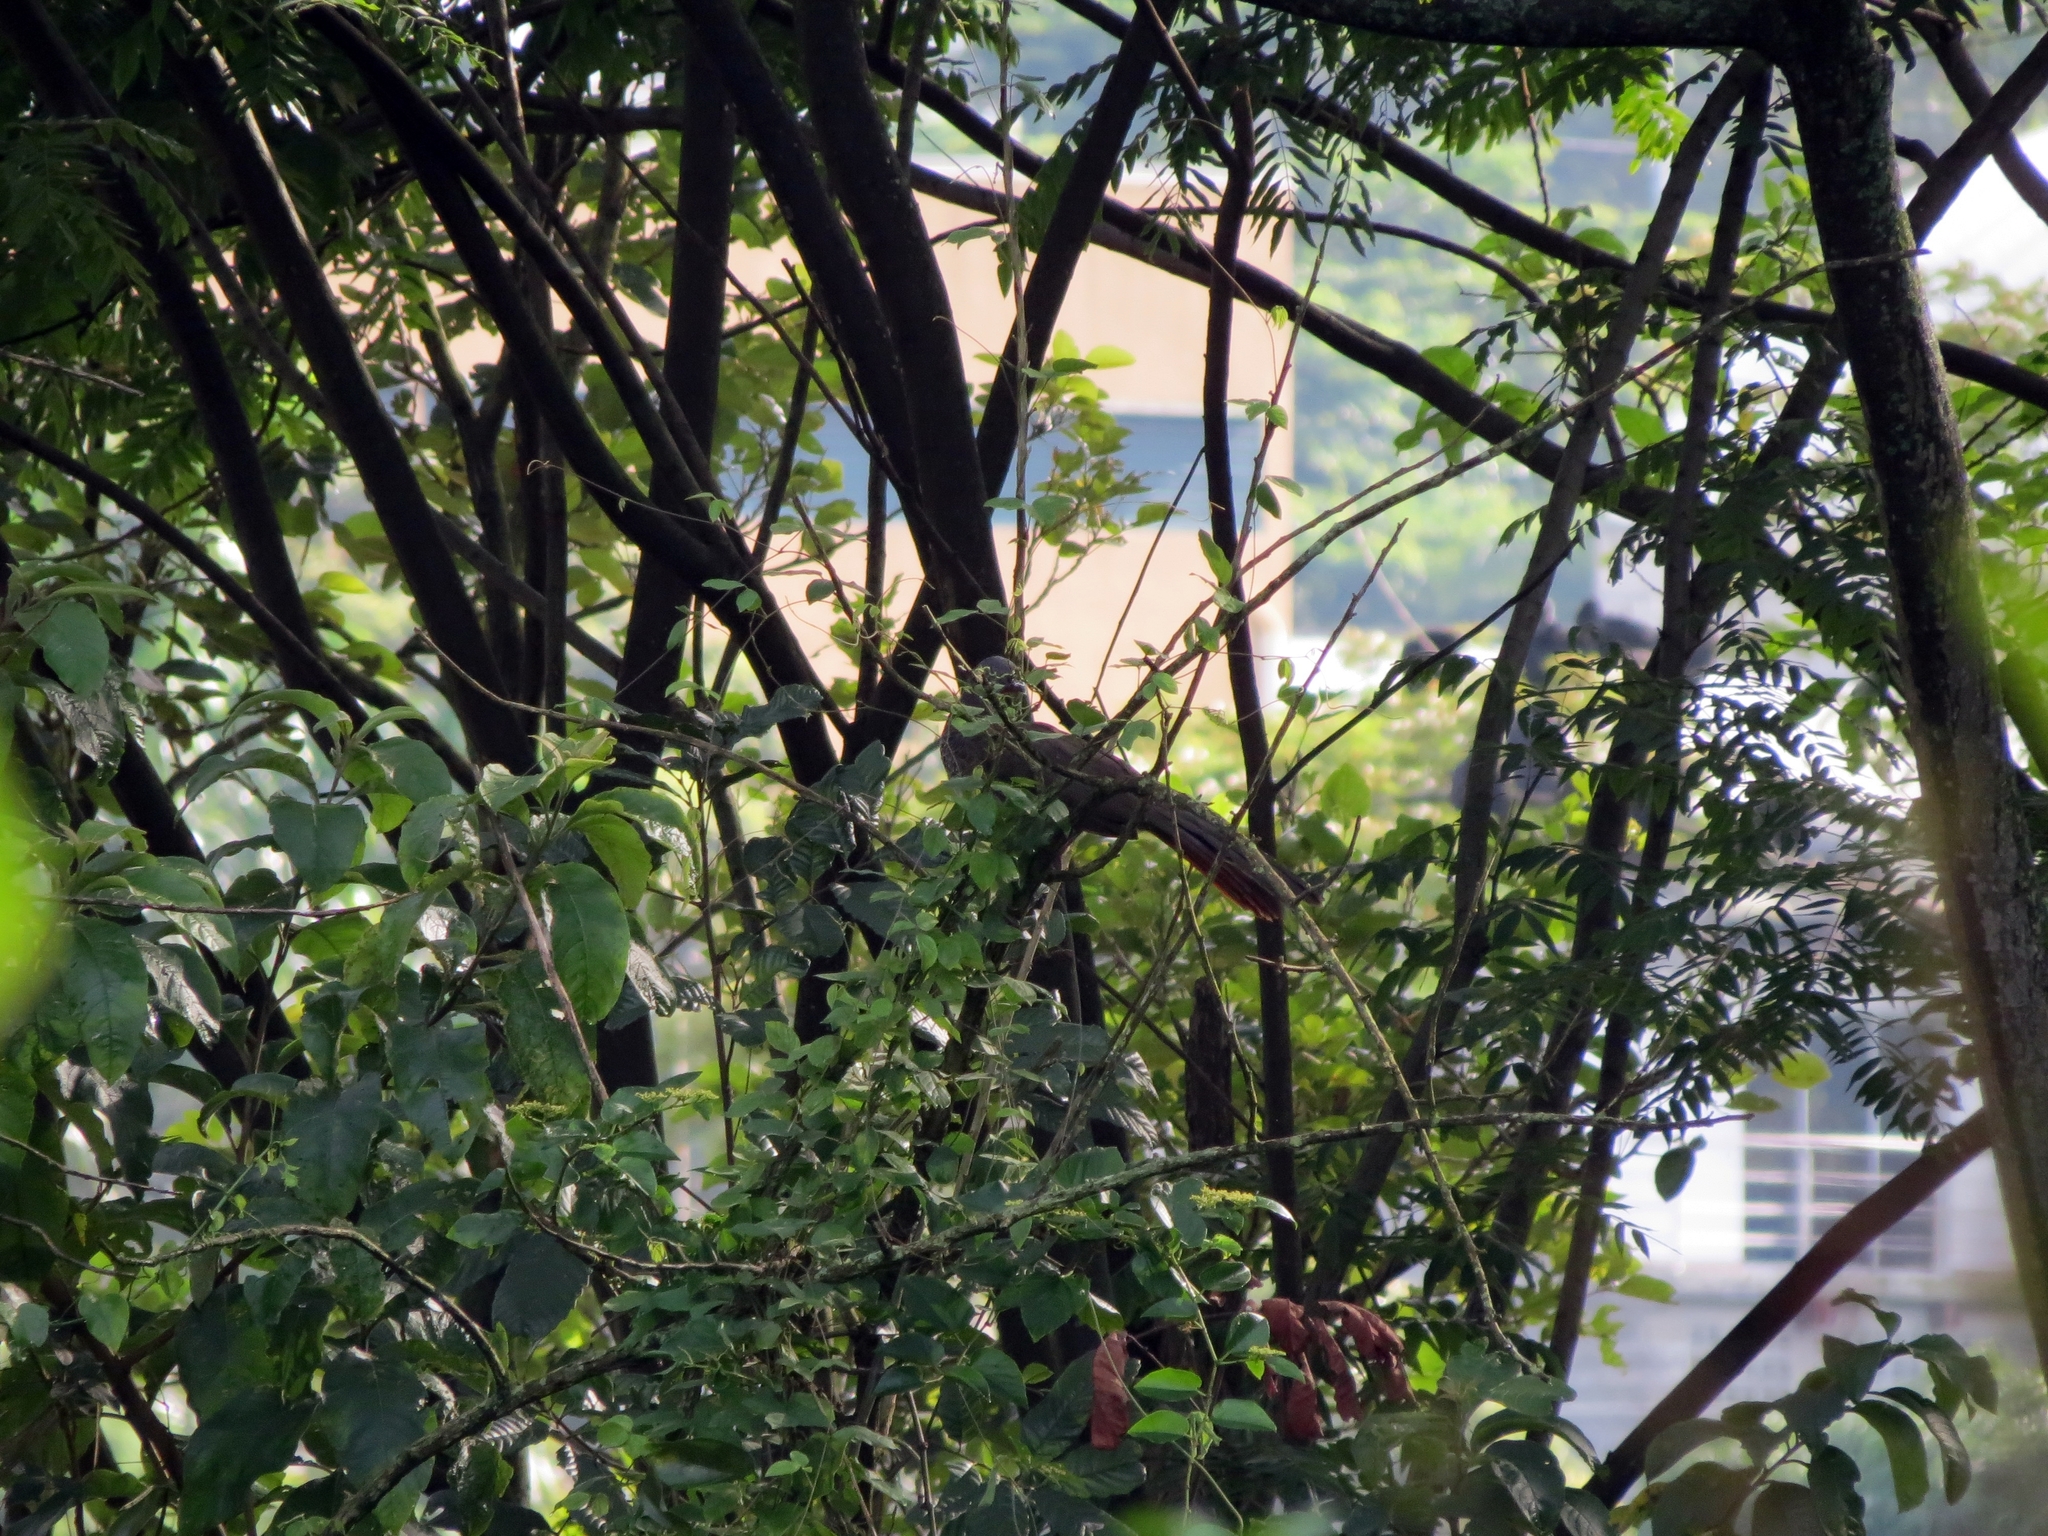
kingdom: Animalia
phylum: Chordata
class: Aves
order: Galliformes
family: Cracidae
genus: Ortalis
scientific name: Ortalis columbiana
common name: Colombian chachalaca
